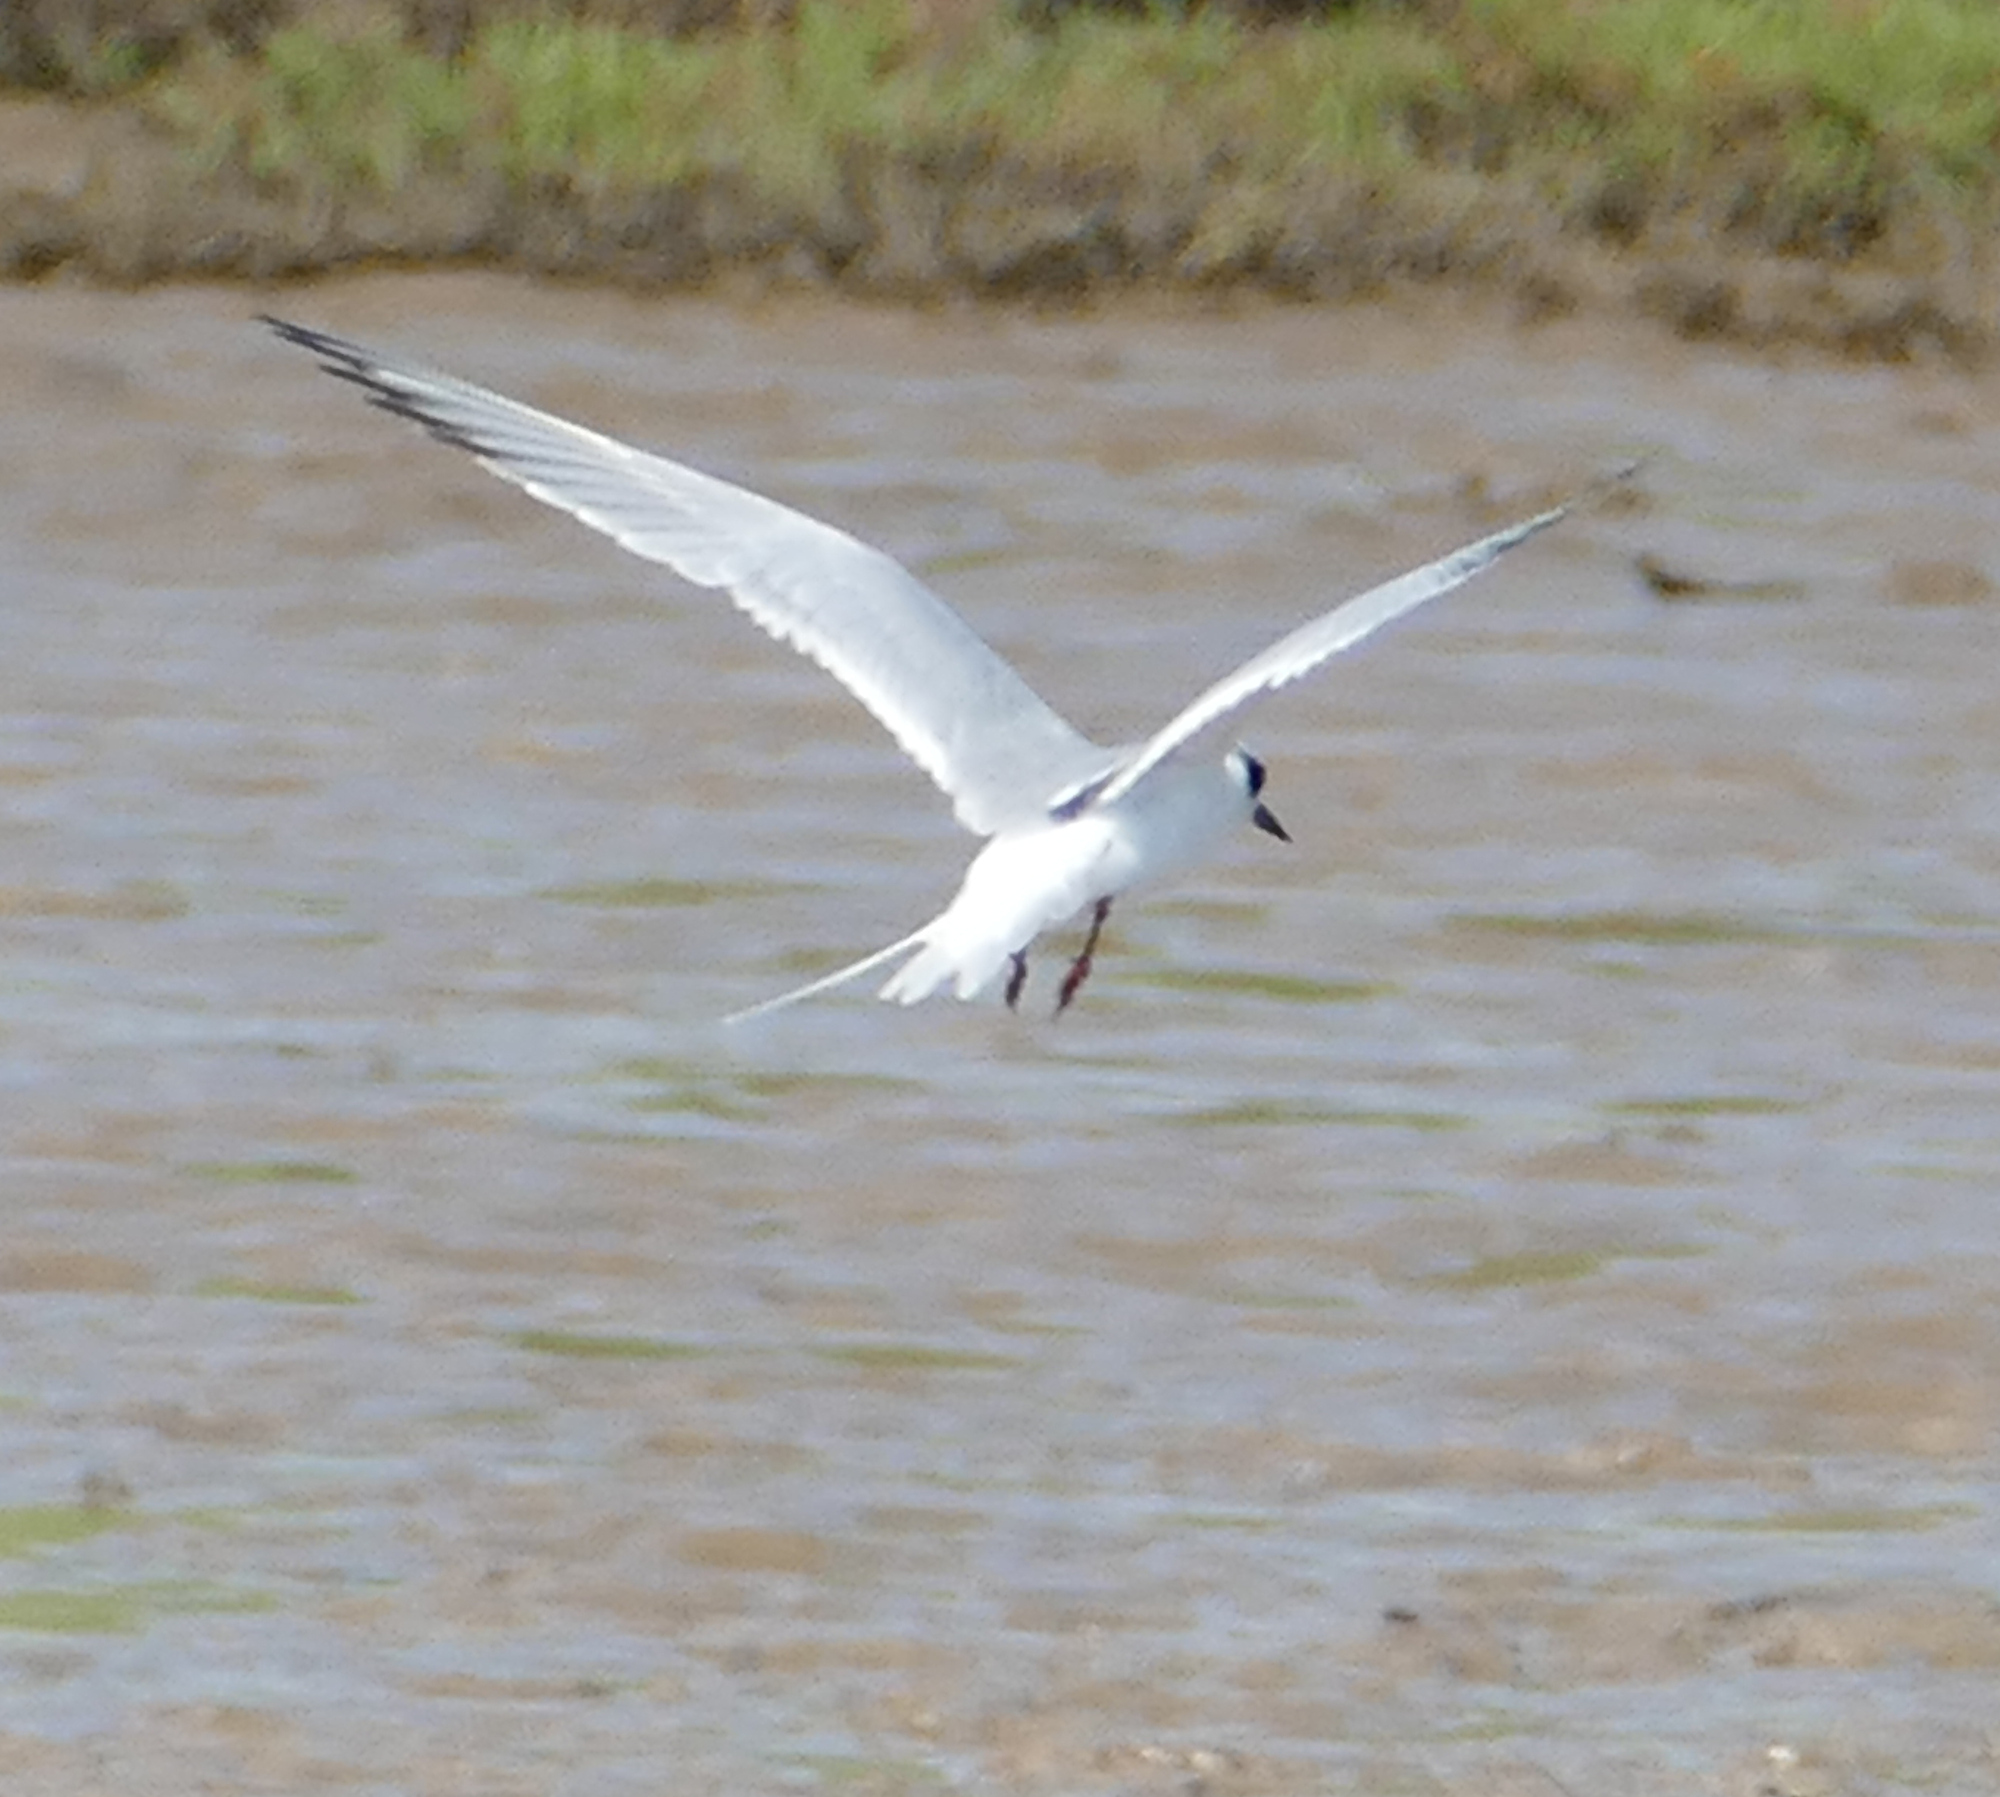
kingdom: Animalia
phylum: Chordata
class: Aves
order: Charadriiformes
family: Laridae
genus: Sterna
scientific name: Sterna forsteri
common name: Forster's tern
